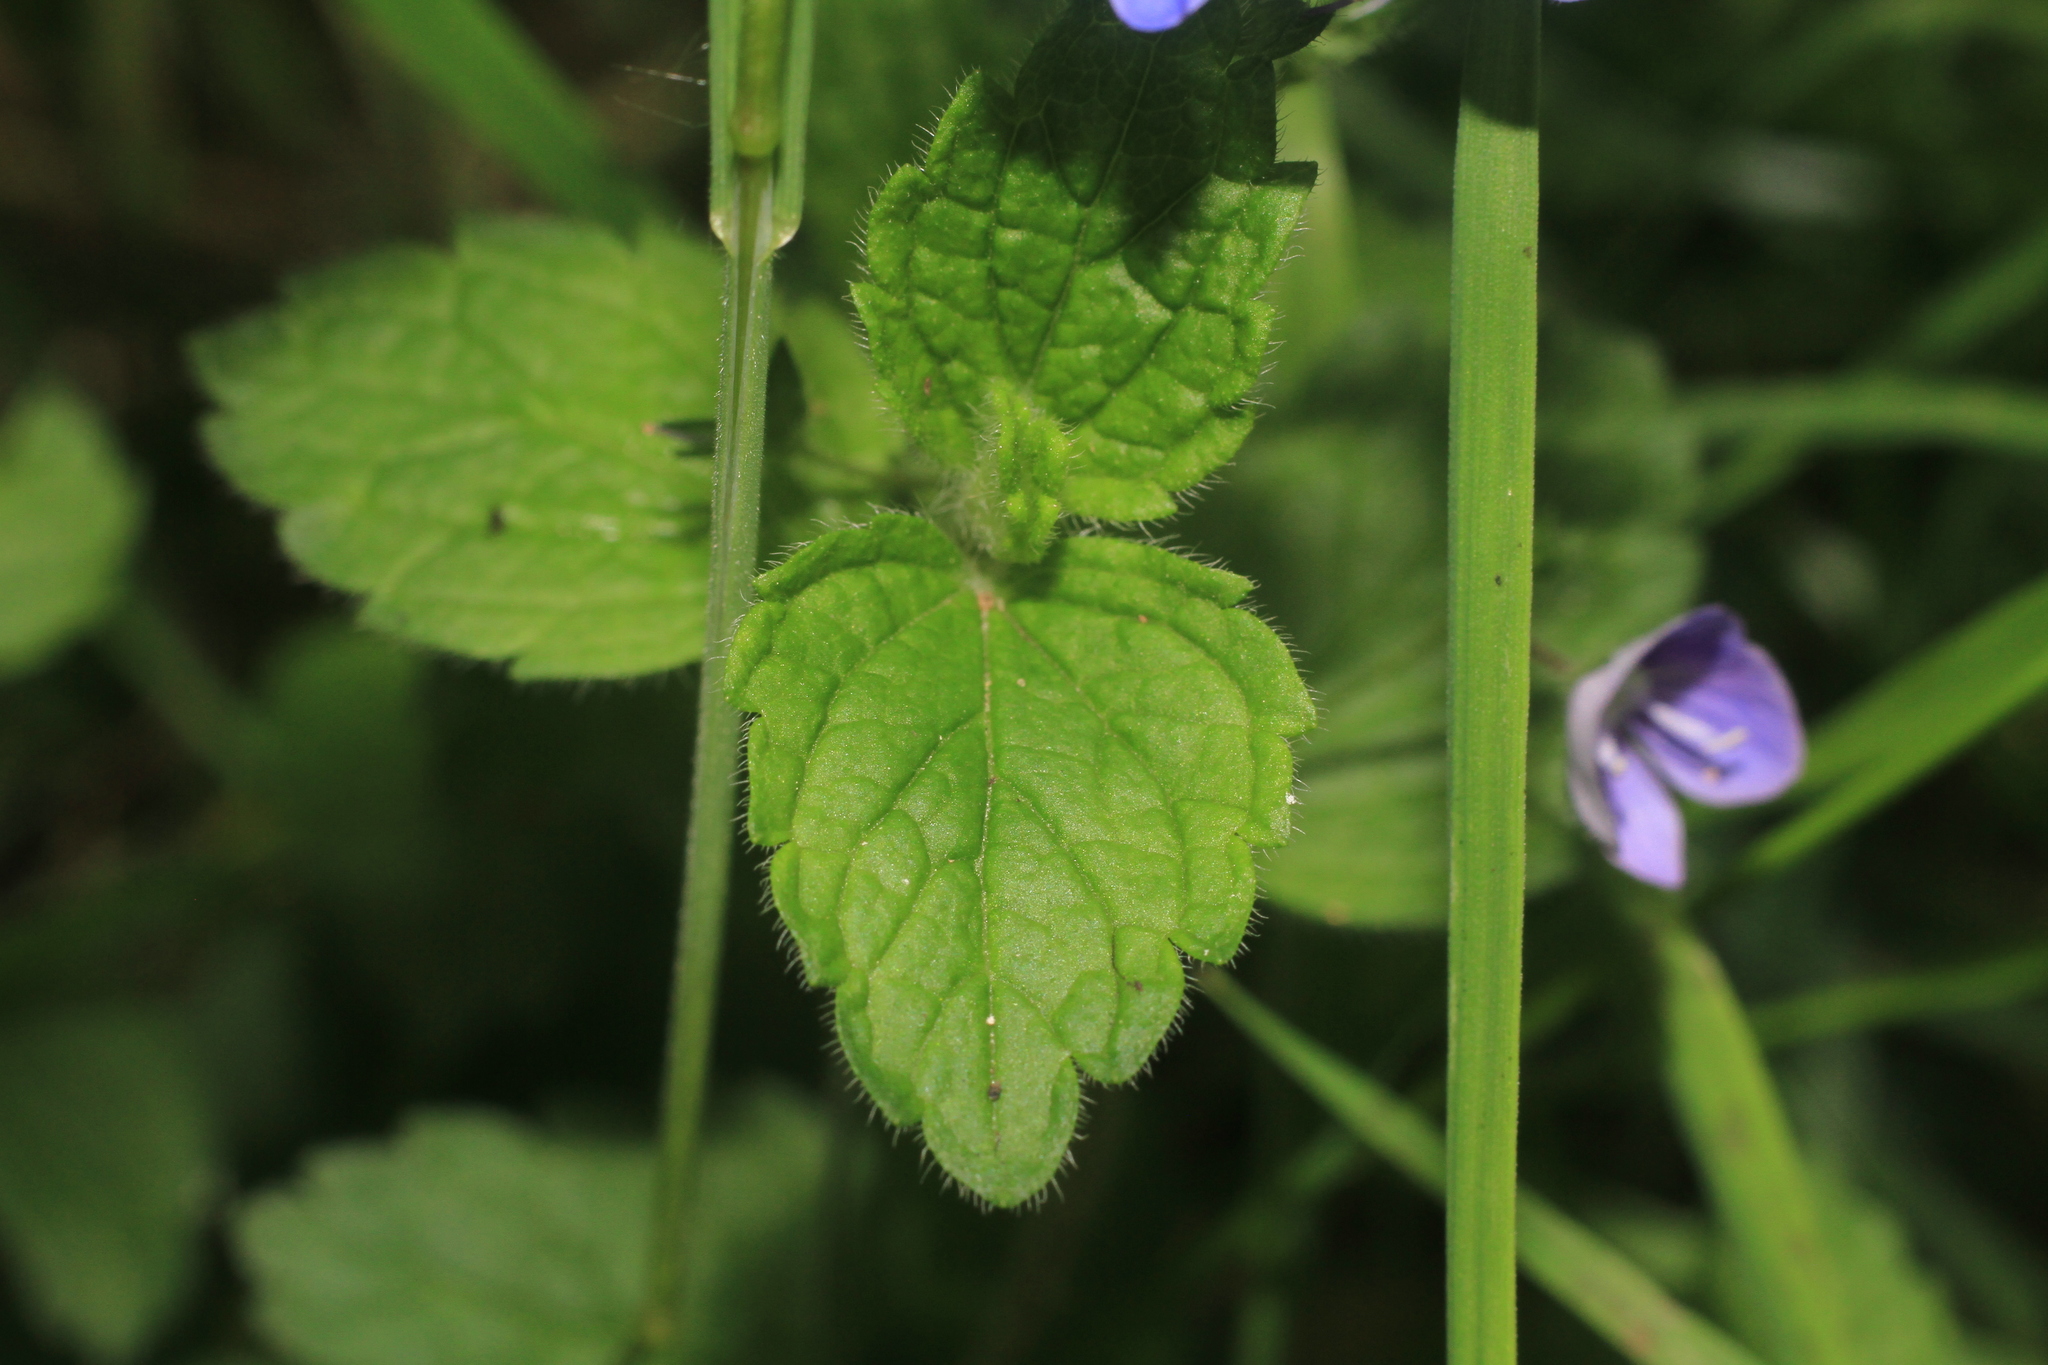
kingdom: Plantae
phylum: Tracheophyta
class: Magnoliopsida
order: Lamiales
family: Plantaginaceae
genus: Veronica
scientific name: Veronica chamaedrys
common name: Germander speedwell
